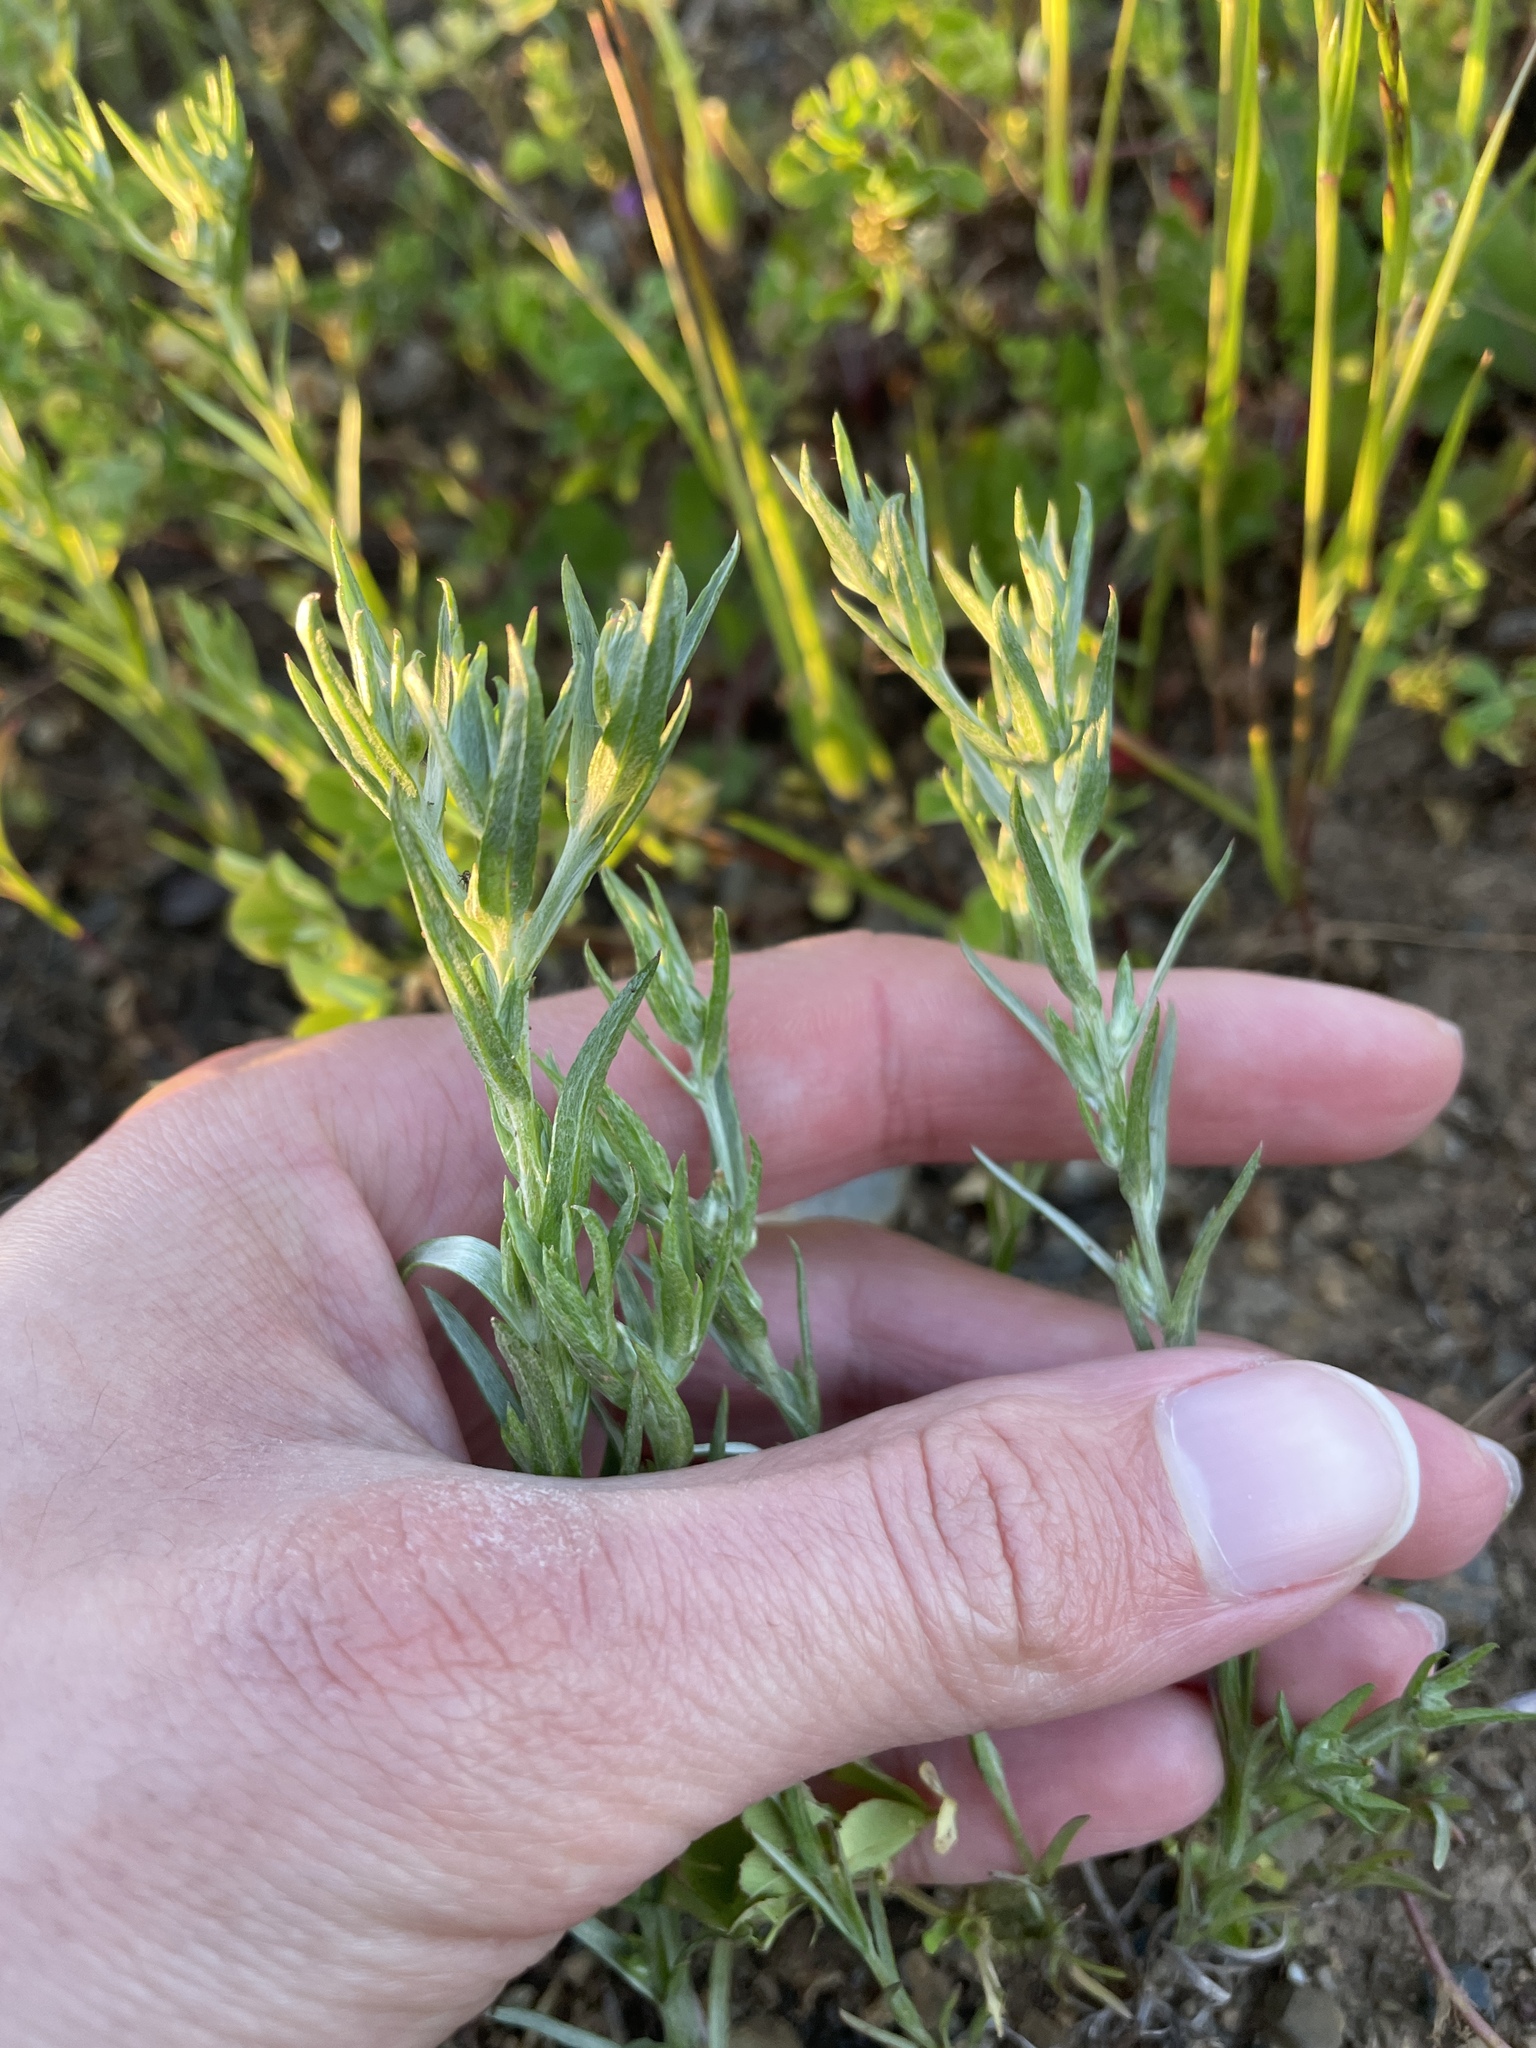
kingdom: Plantae
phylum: Tracheophyta
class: Magnoliopsida
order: Asterales
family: Asteraceae
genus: Logfia
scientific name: Logfia gallica
